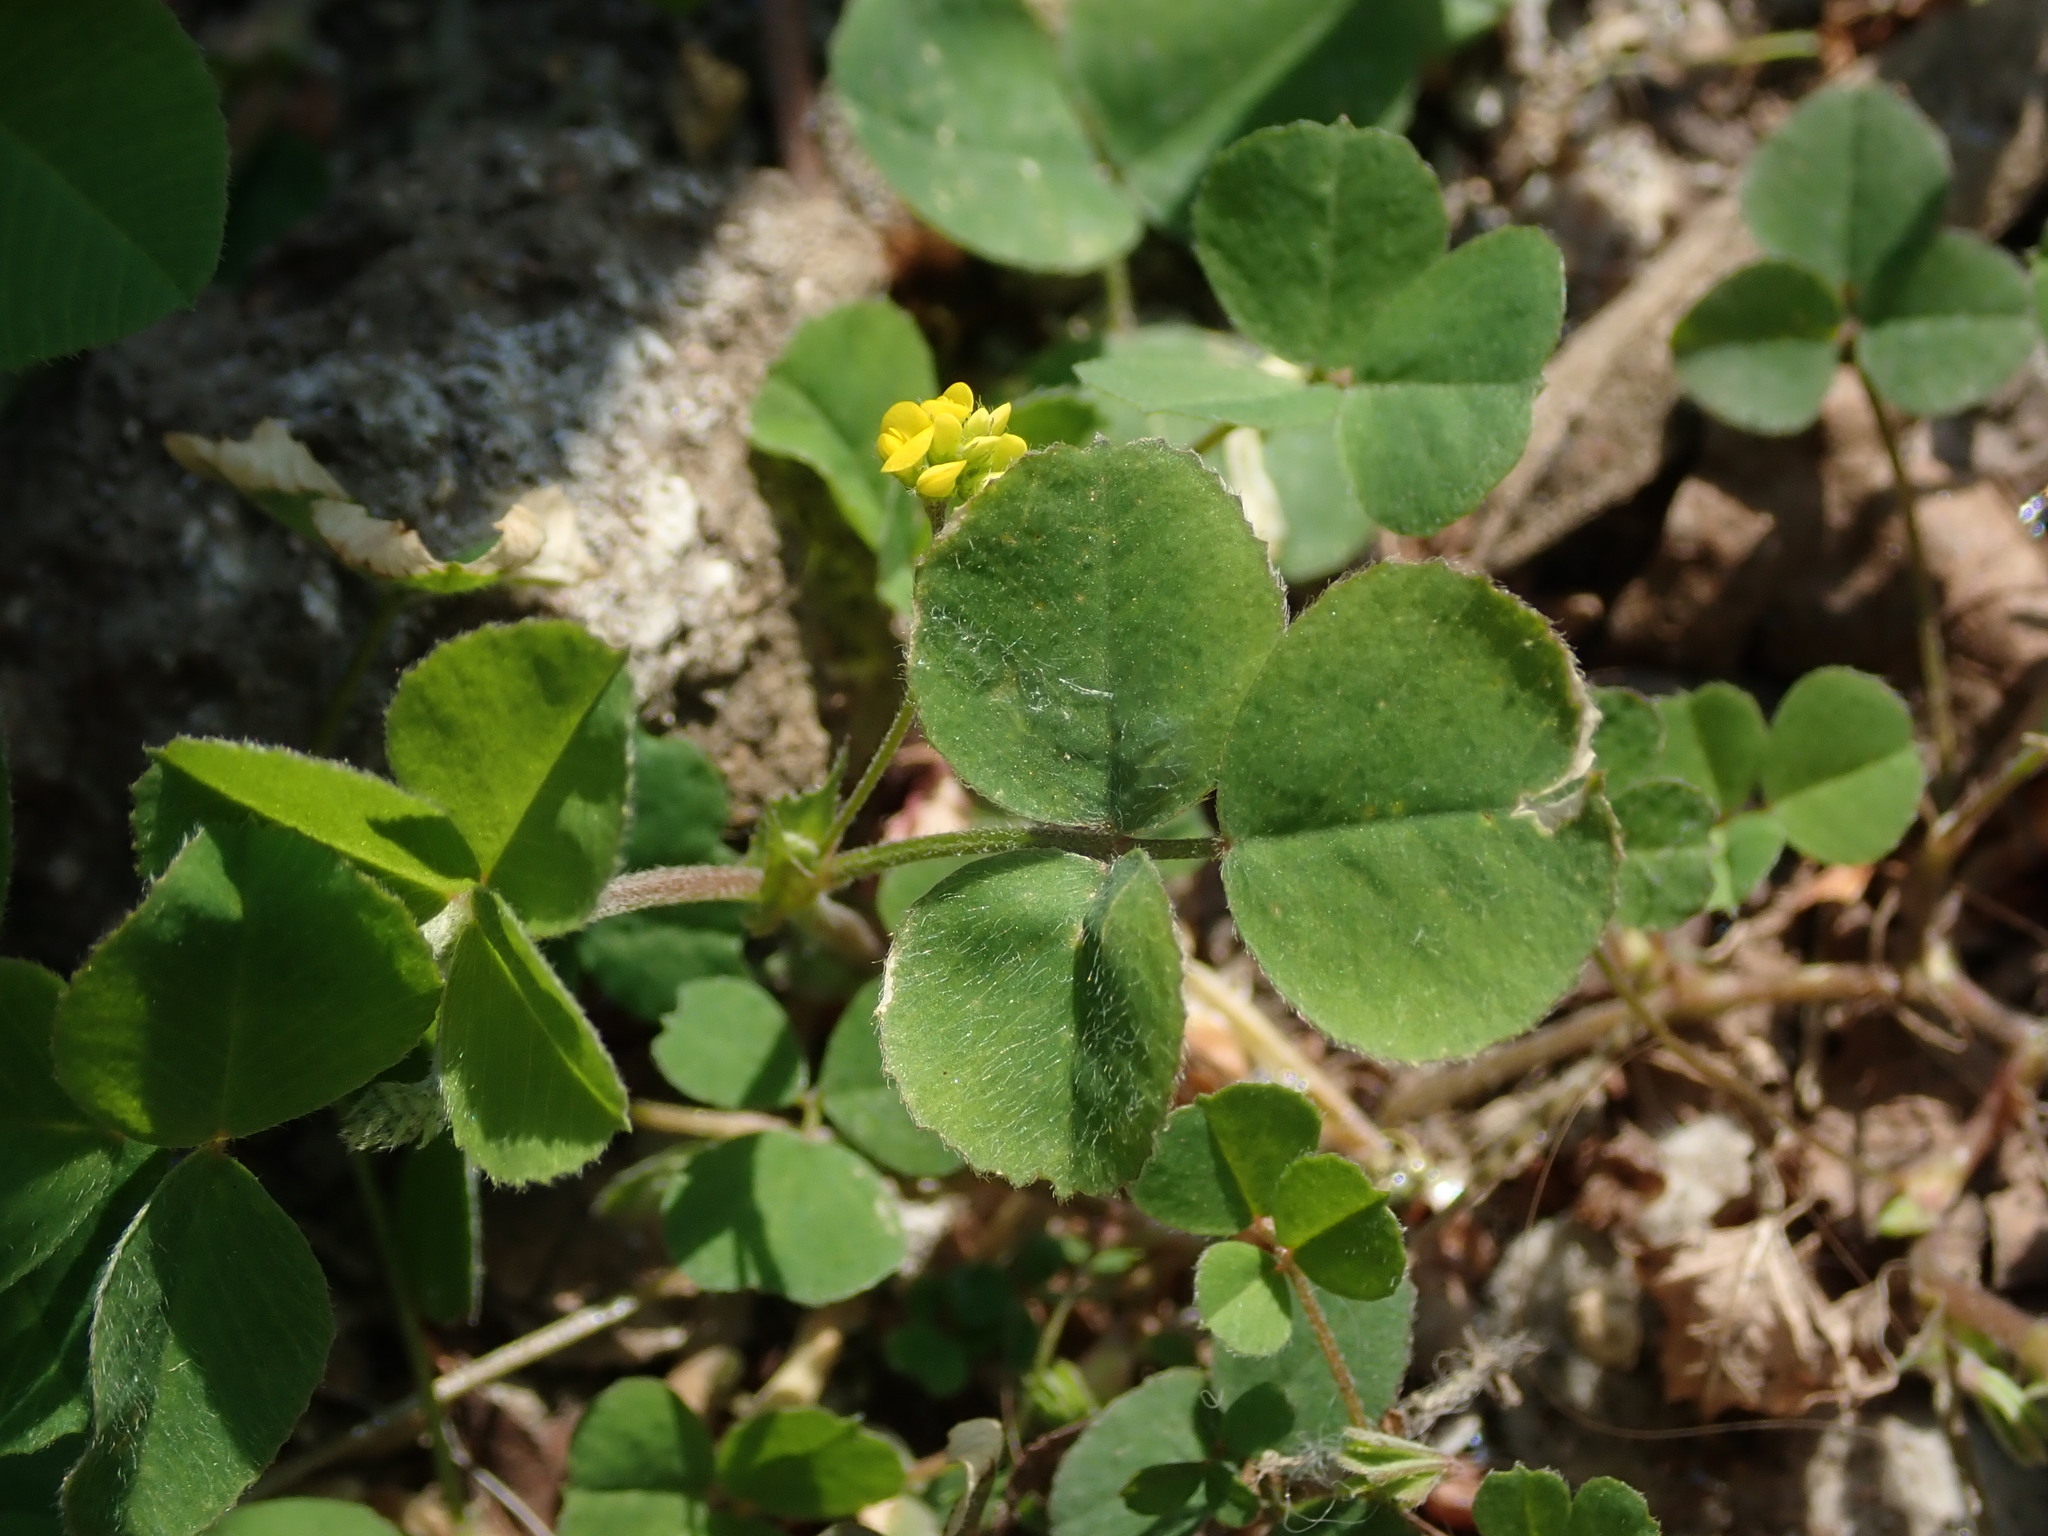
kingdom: Plantae
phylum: Tracheophyta
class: Magnoliopsida
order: Fabales
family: Fabaceae
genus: Medicago
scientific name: Medicago lupulina
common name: Black medick
